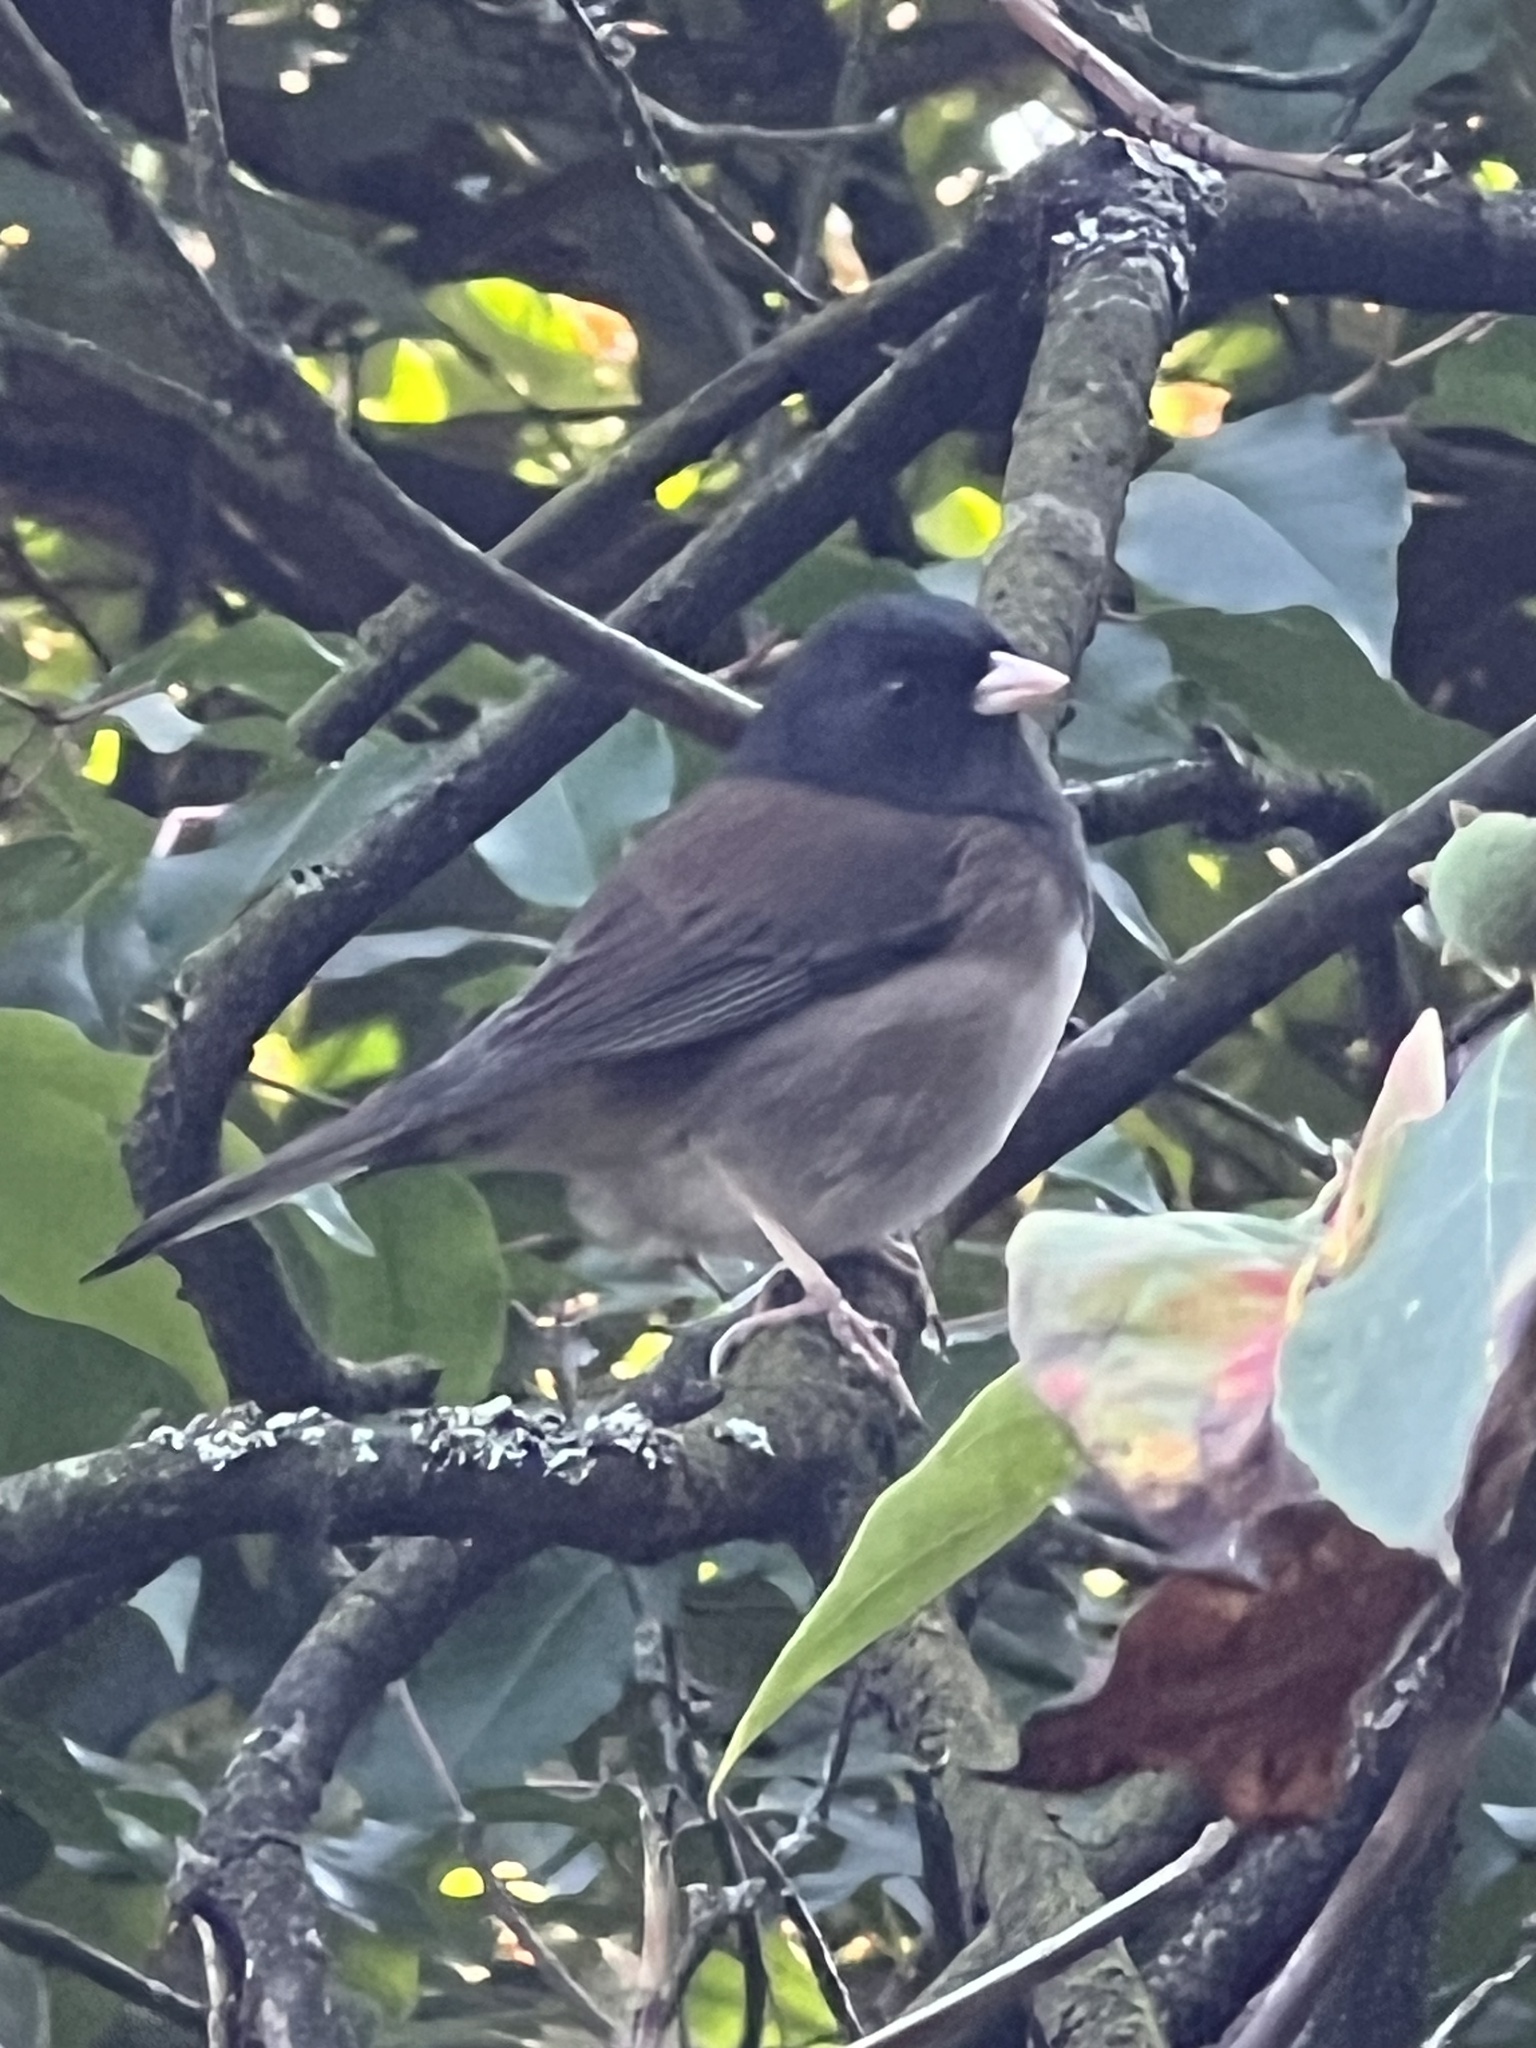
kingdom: Animalia
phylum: Chordata
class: Aves
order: Passeriformes
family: Passerellidae
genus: Junco
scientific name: Junco hyemalis
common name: Dark-eyed junco
